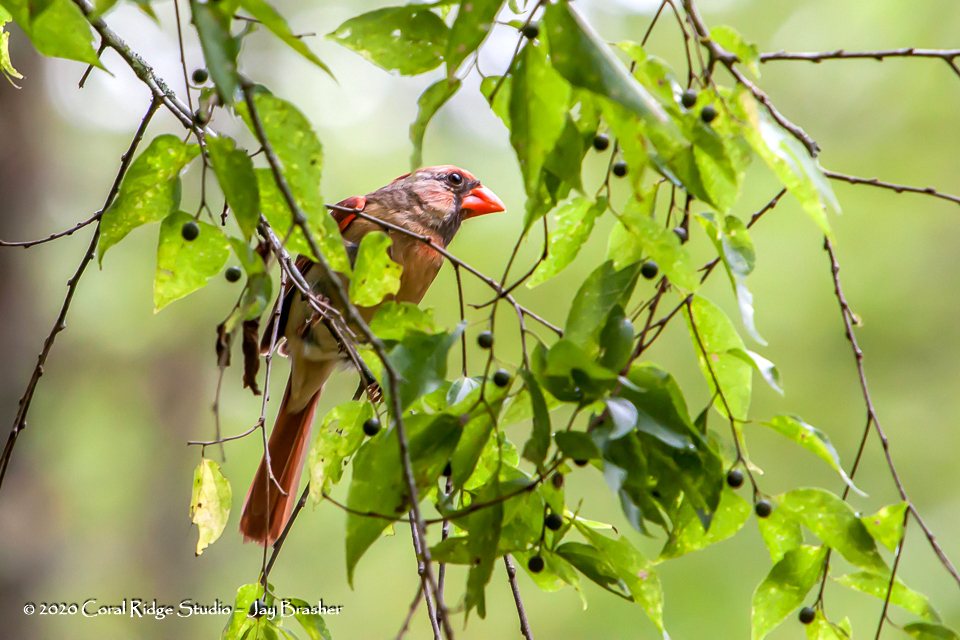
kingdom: Animalia
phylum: Chordata
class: Aves
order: Passeriformes
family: Cardinalidae
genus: Cardinalis
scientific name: Cardinalis cardinalis
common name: Northern cardinal
